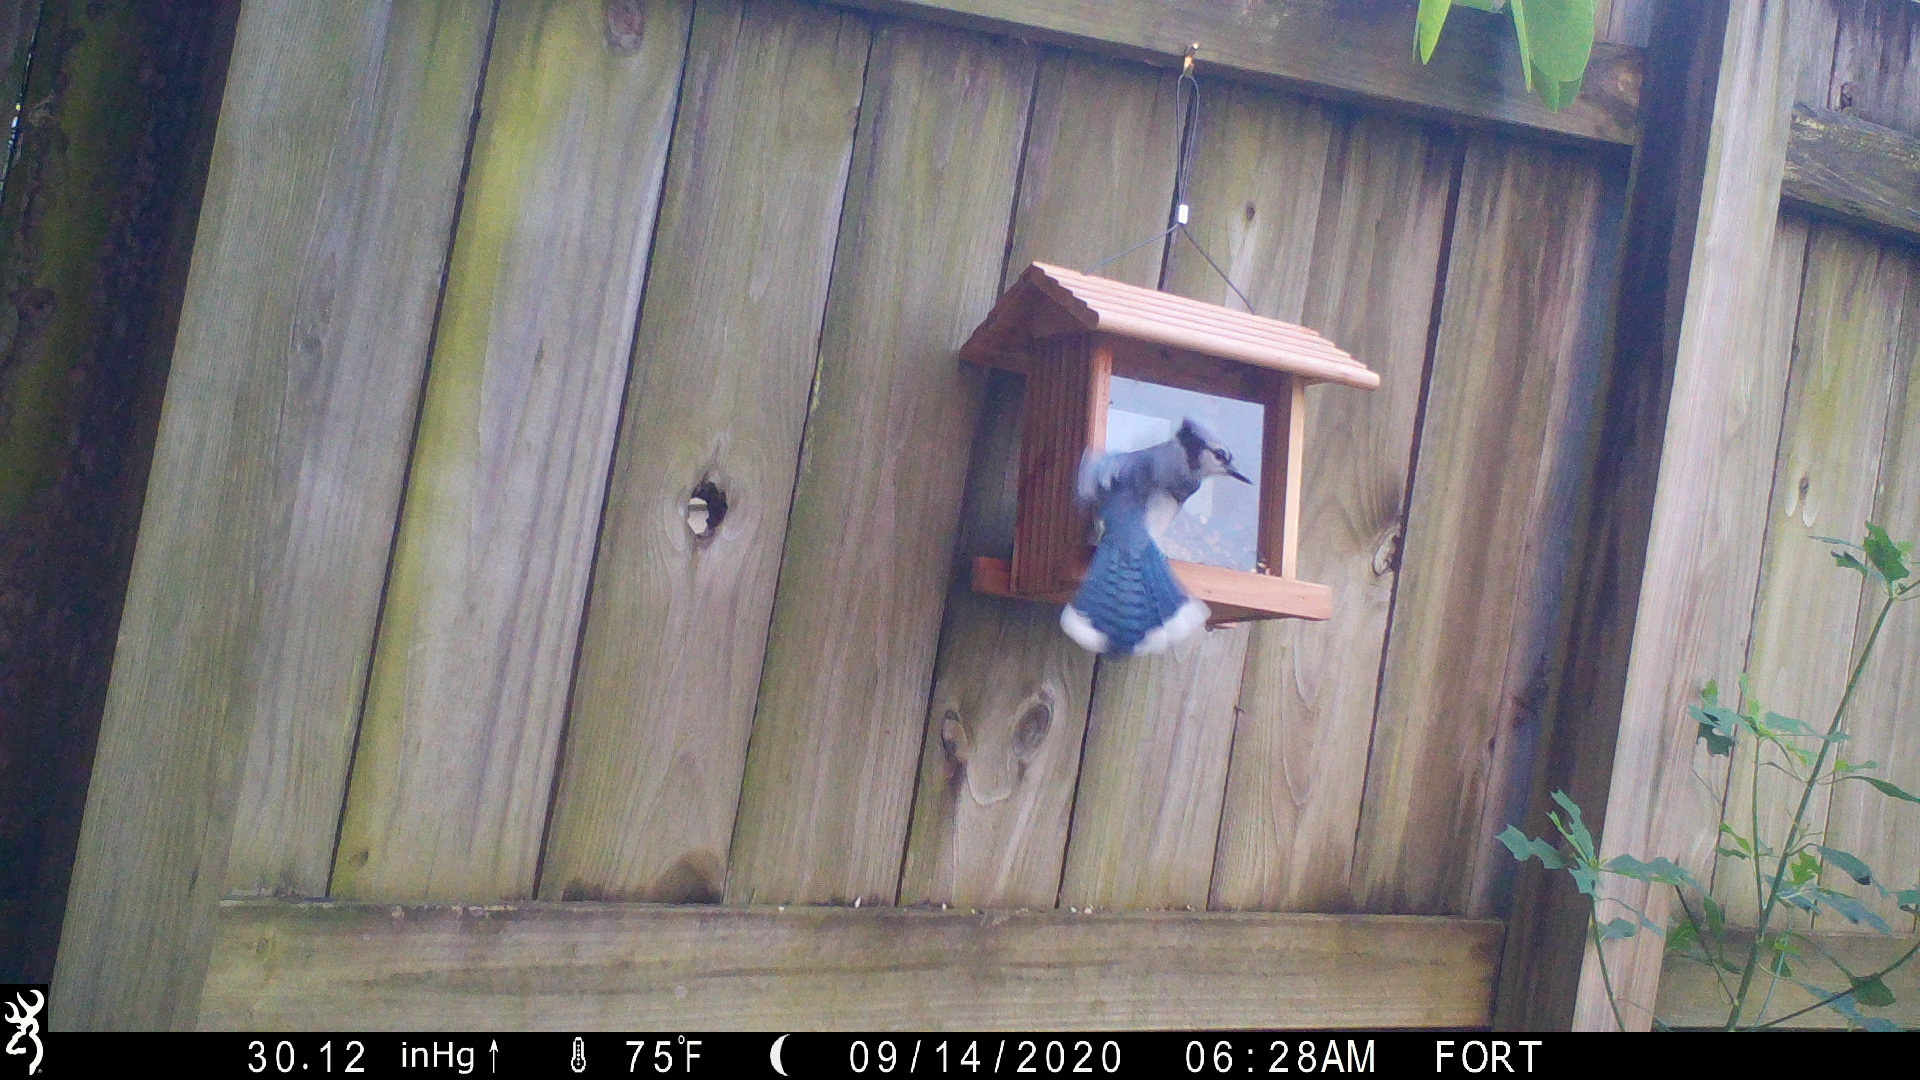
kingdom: Animalia
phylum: Chordata
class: Aves
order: Passeriformes
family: Corvidae
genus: Cyanocitta
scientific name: Cyanocitta cristata
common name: Blue jay
